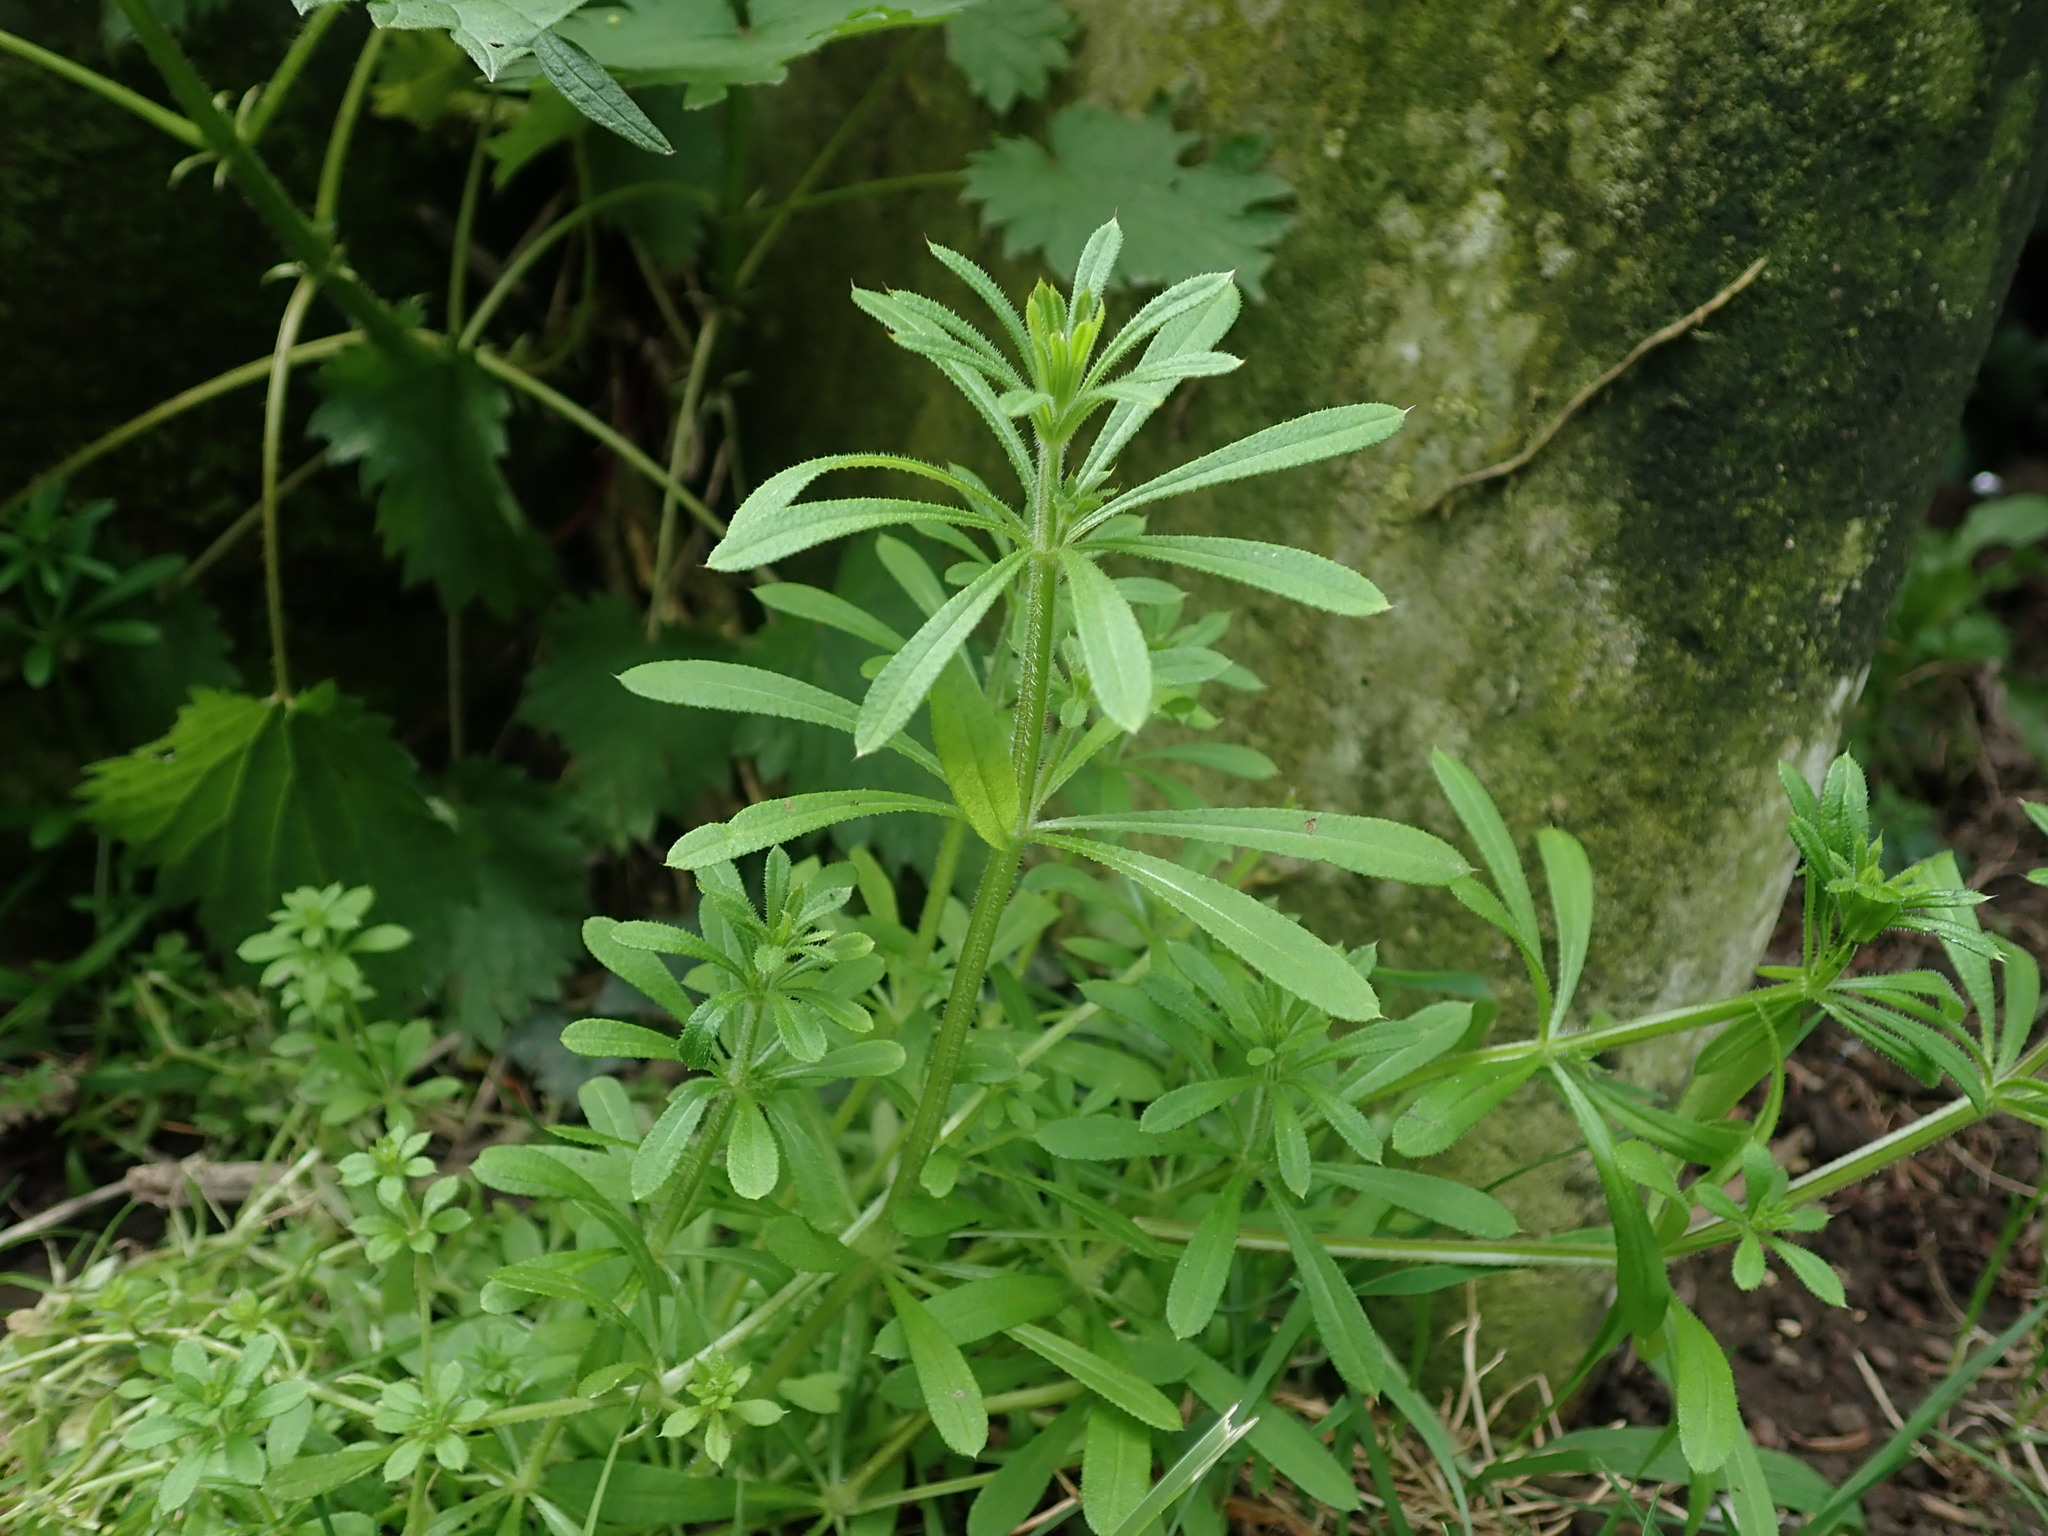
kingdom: Plantae
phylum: Tracheophyta
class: Magnoliopsida
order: Gentianales
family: Rubiaceae
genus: Galium
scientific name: Galium aparine
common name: Cleavers
